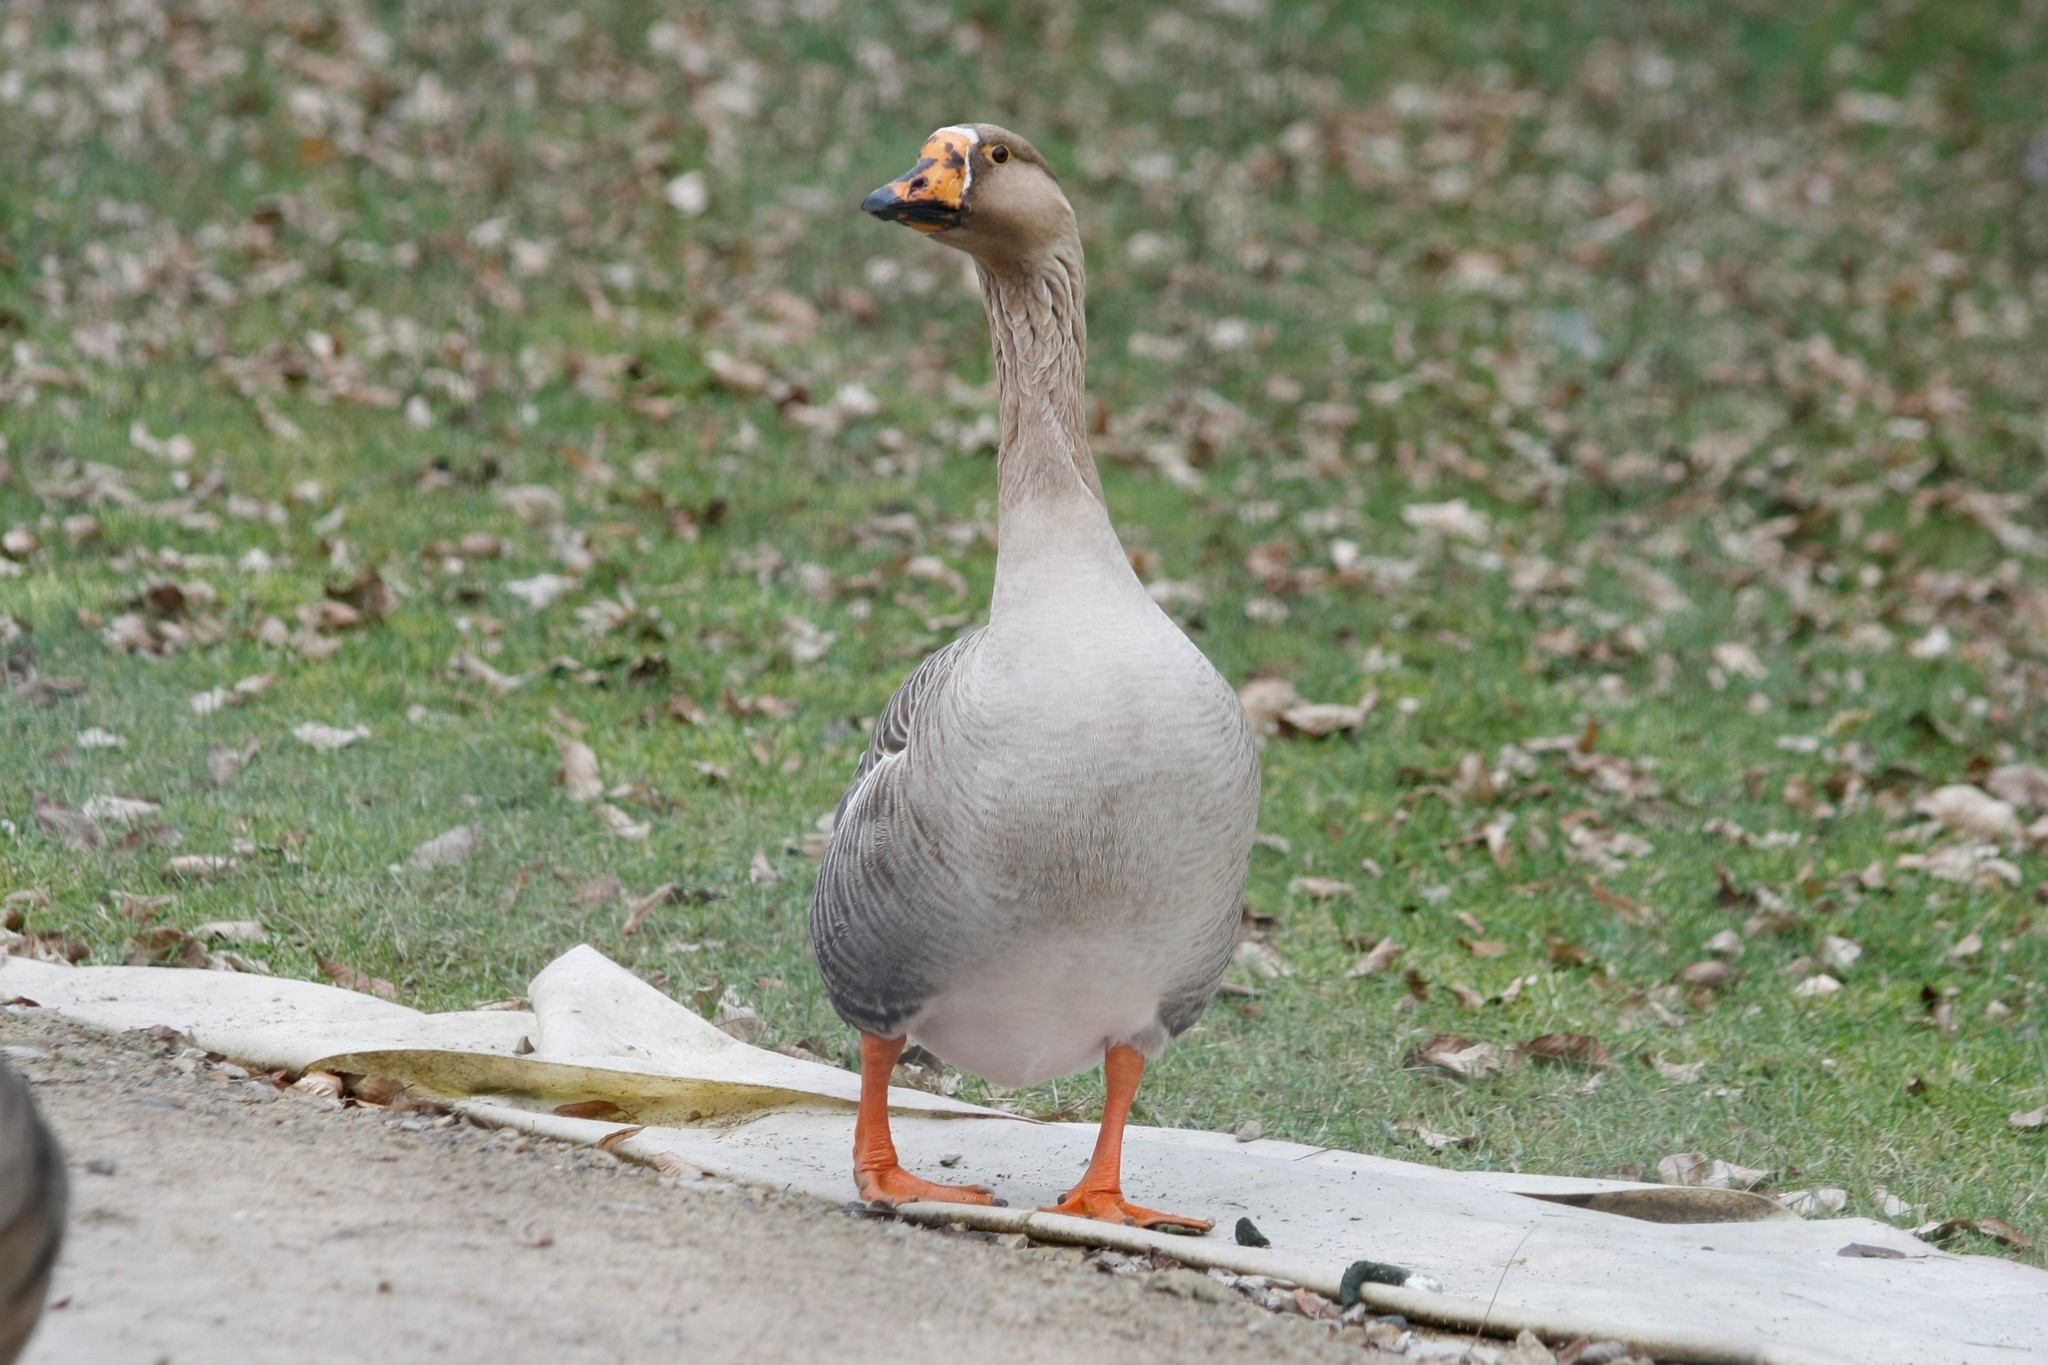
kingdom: Animalia
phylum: Chordata
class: Aves
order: Anseriformes
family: Anatidae
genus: Anser
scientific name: Anser
